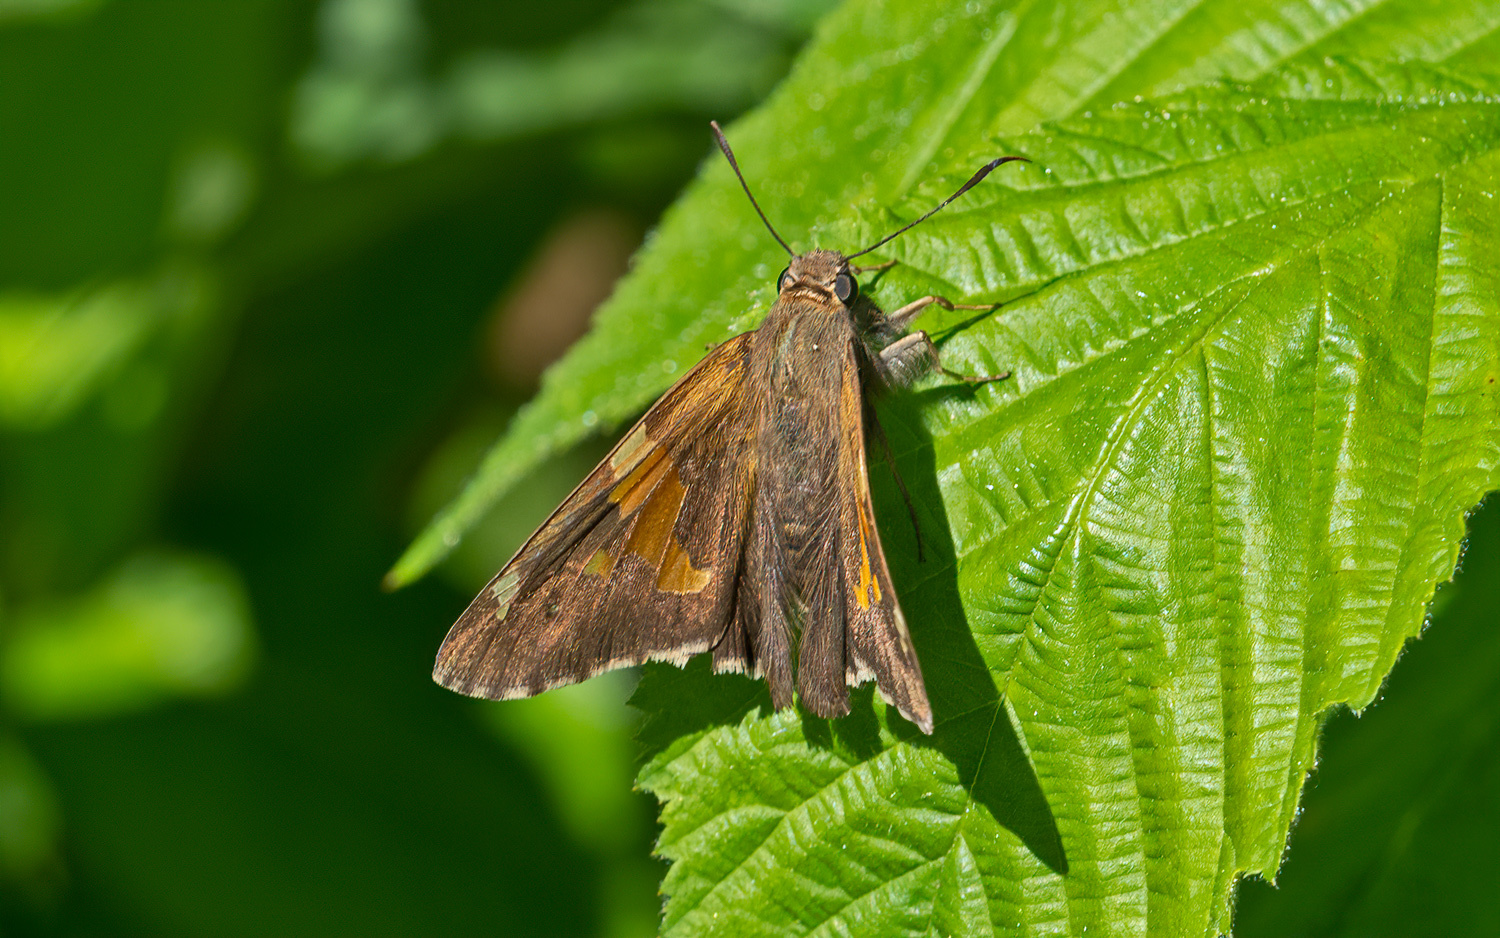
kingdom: Animalia
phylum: Arthropoda
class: Insecta
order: Lepidoptera
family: Hesperiidae
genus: Epargyreus
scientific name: Epargyreus clarus
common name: Silver-spotted skipper
